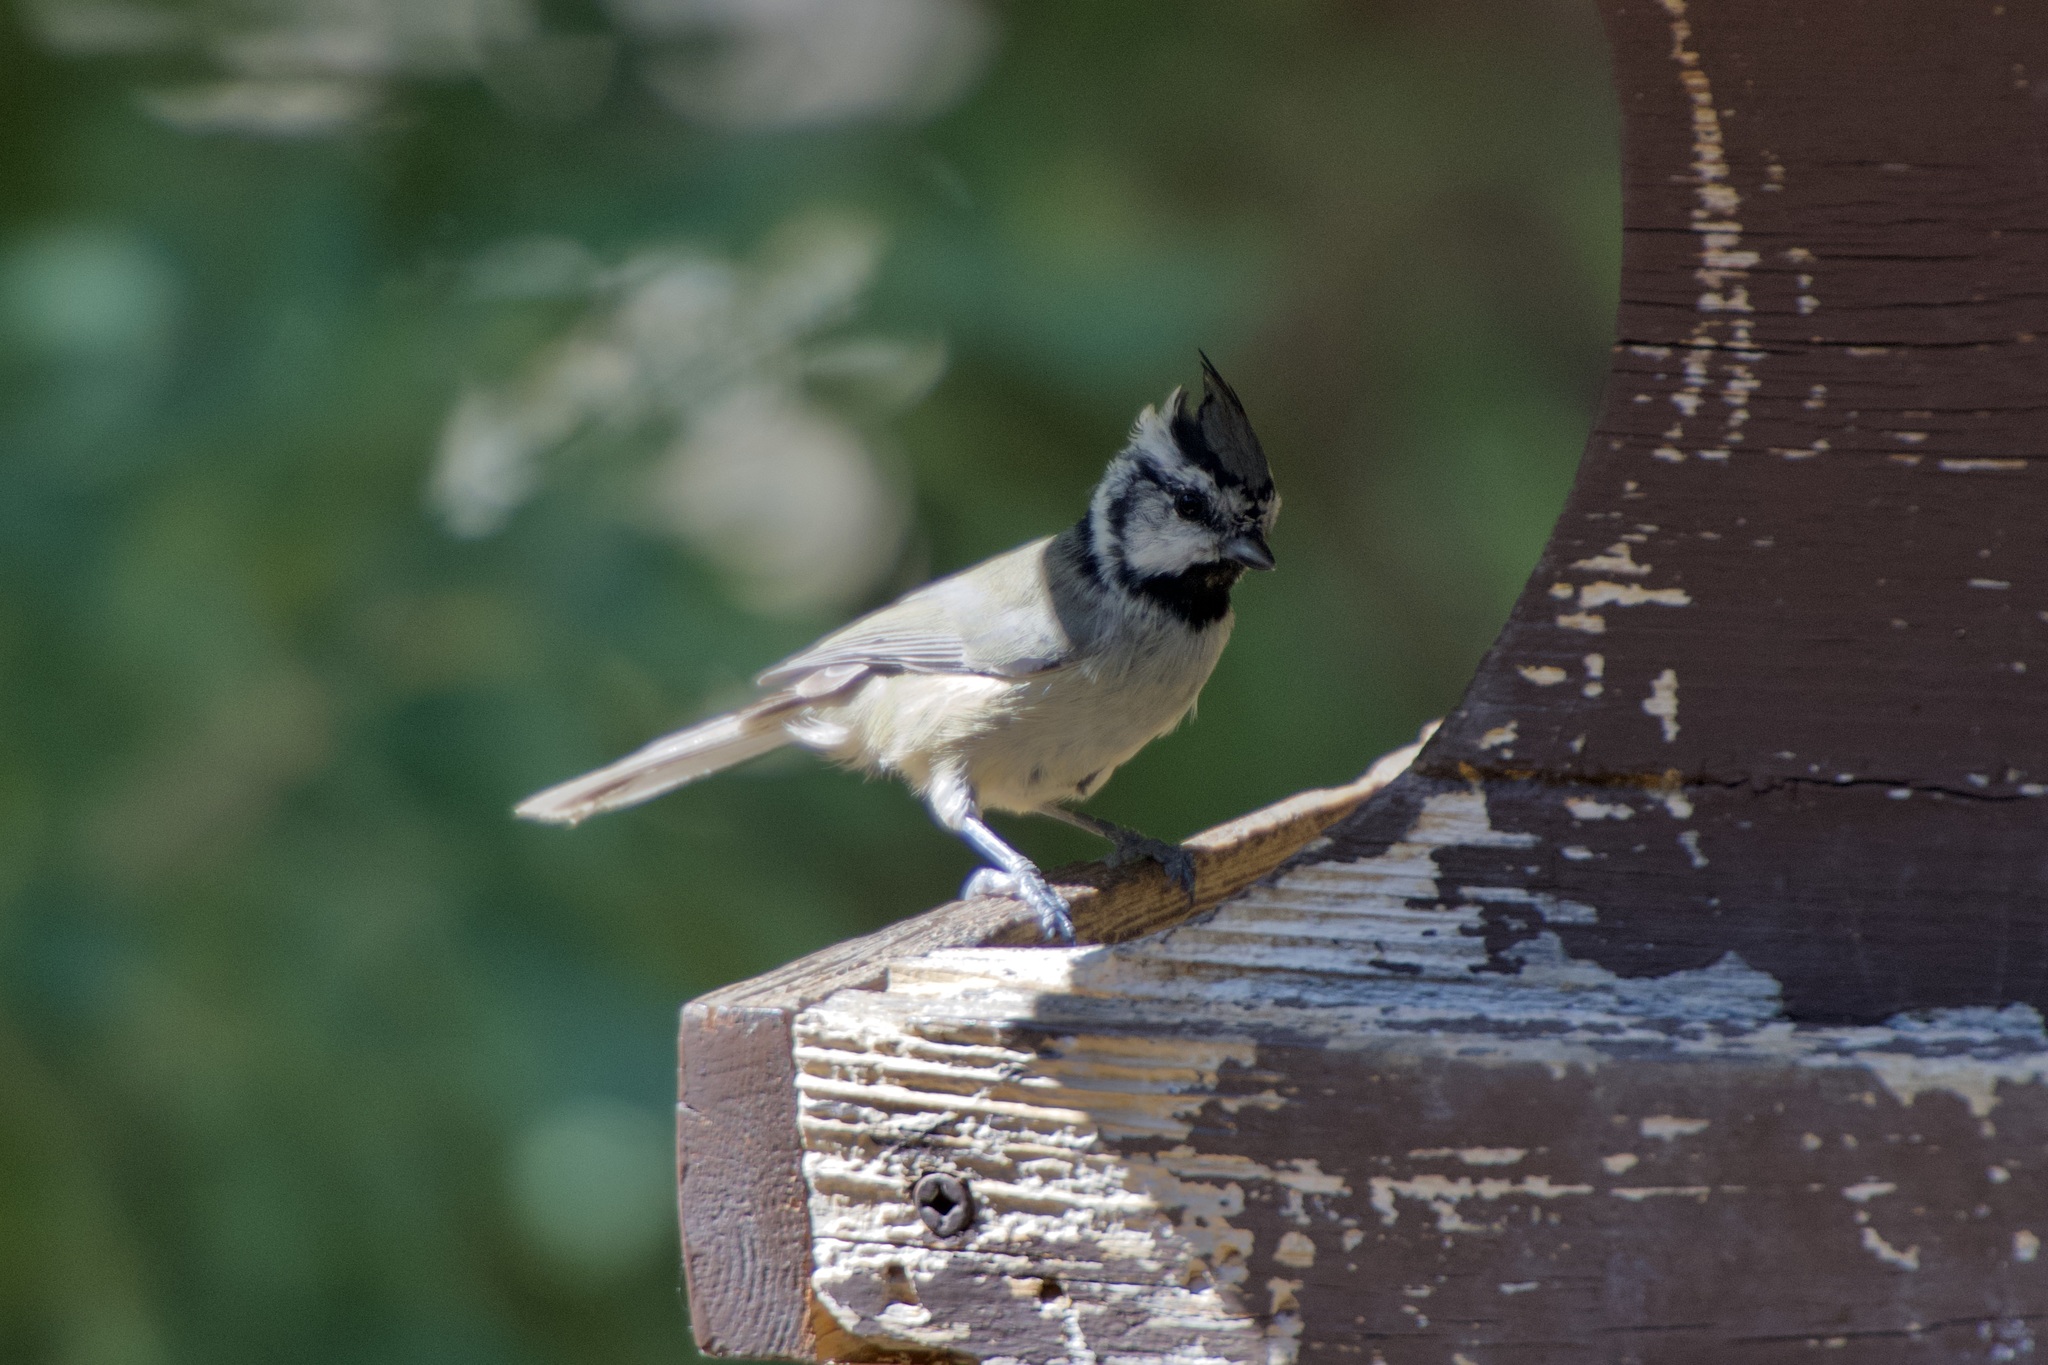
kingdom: Animalia
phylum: Chordata
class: Aves
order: Passeriformes
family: Paridae
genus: Baeolophus
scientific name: Baeolophus wollweberi
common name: Bridled titmouse
